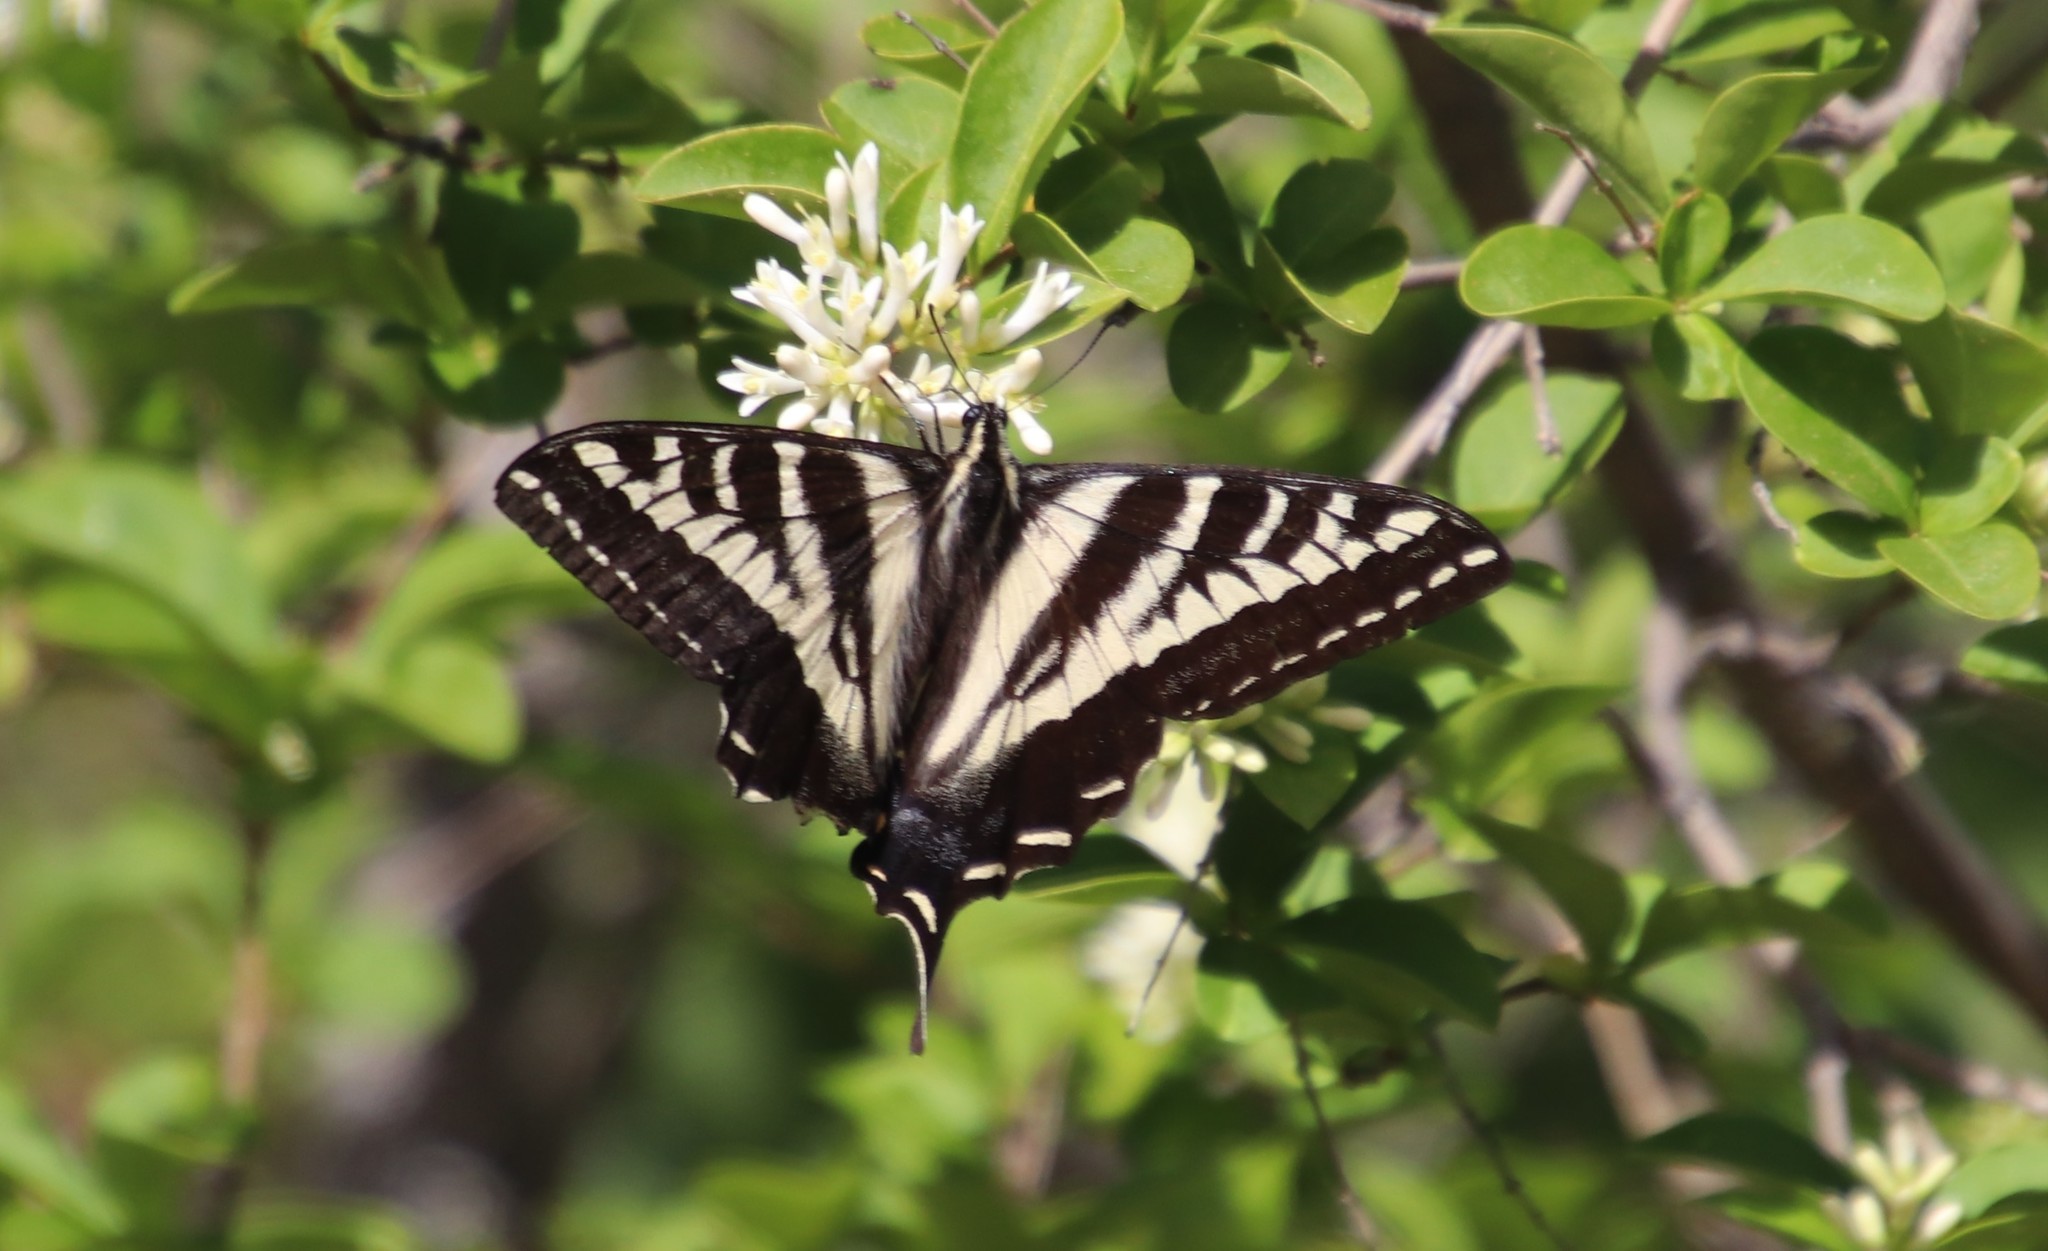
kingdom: Animalia
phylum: Arthropoda
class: Insecta
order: Lepidoptera
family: Papilionidae
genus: Papilio
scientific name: Papilio eurymedon
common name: Pale tiger swallowtail
